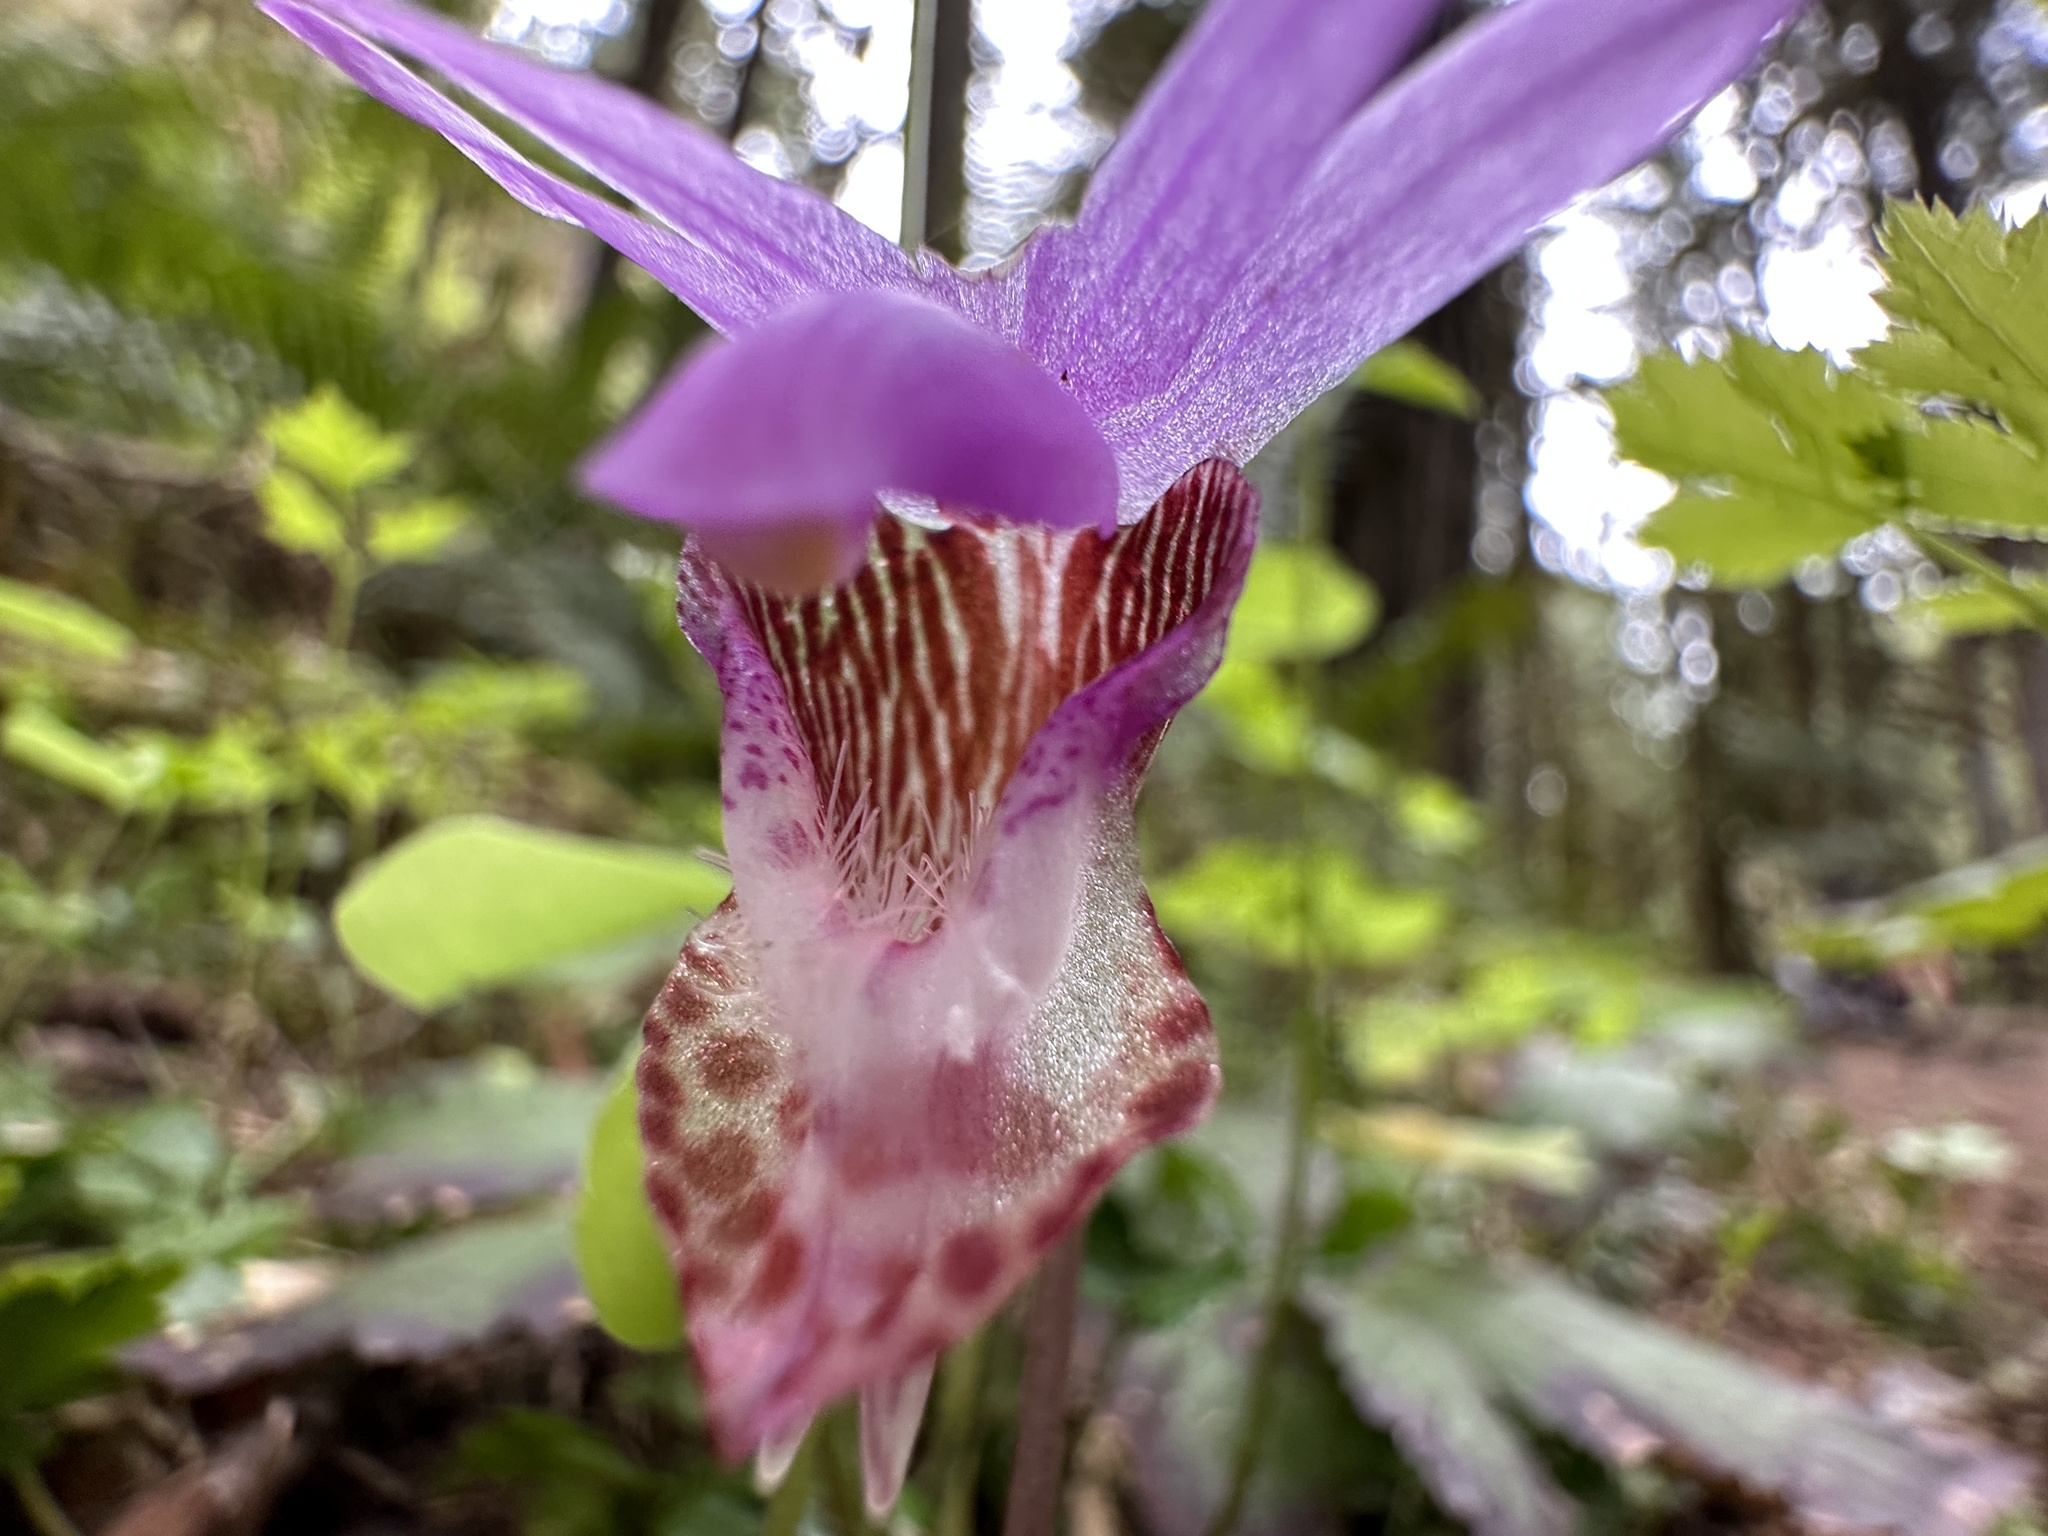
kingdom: Plantae
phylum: Tracheophyta
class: Liliopsida
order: Asparagales
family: Orchidaceae
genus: Calypso
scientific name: Calypso bulbosa
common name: Calypso
